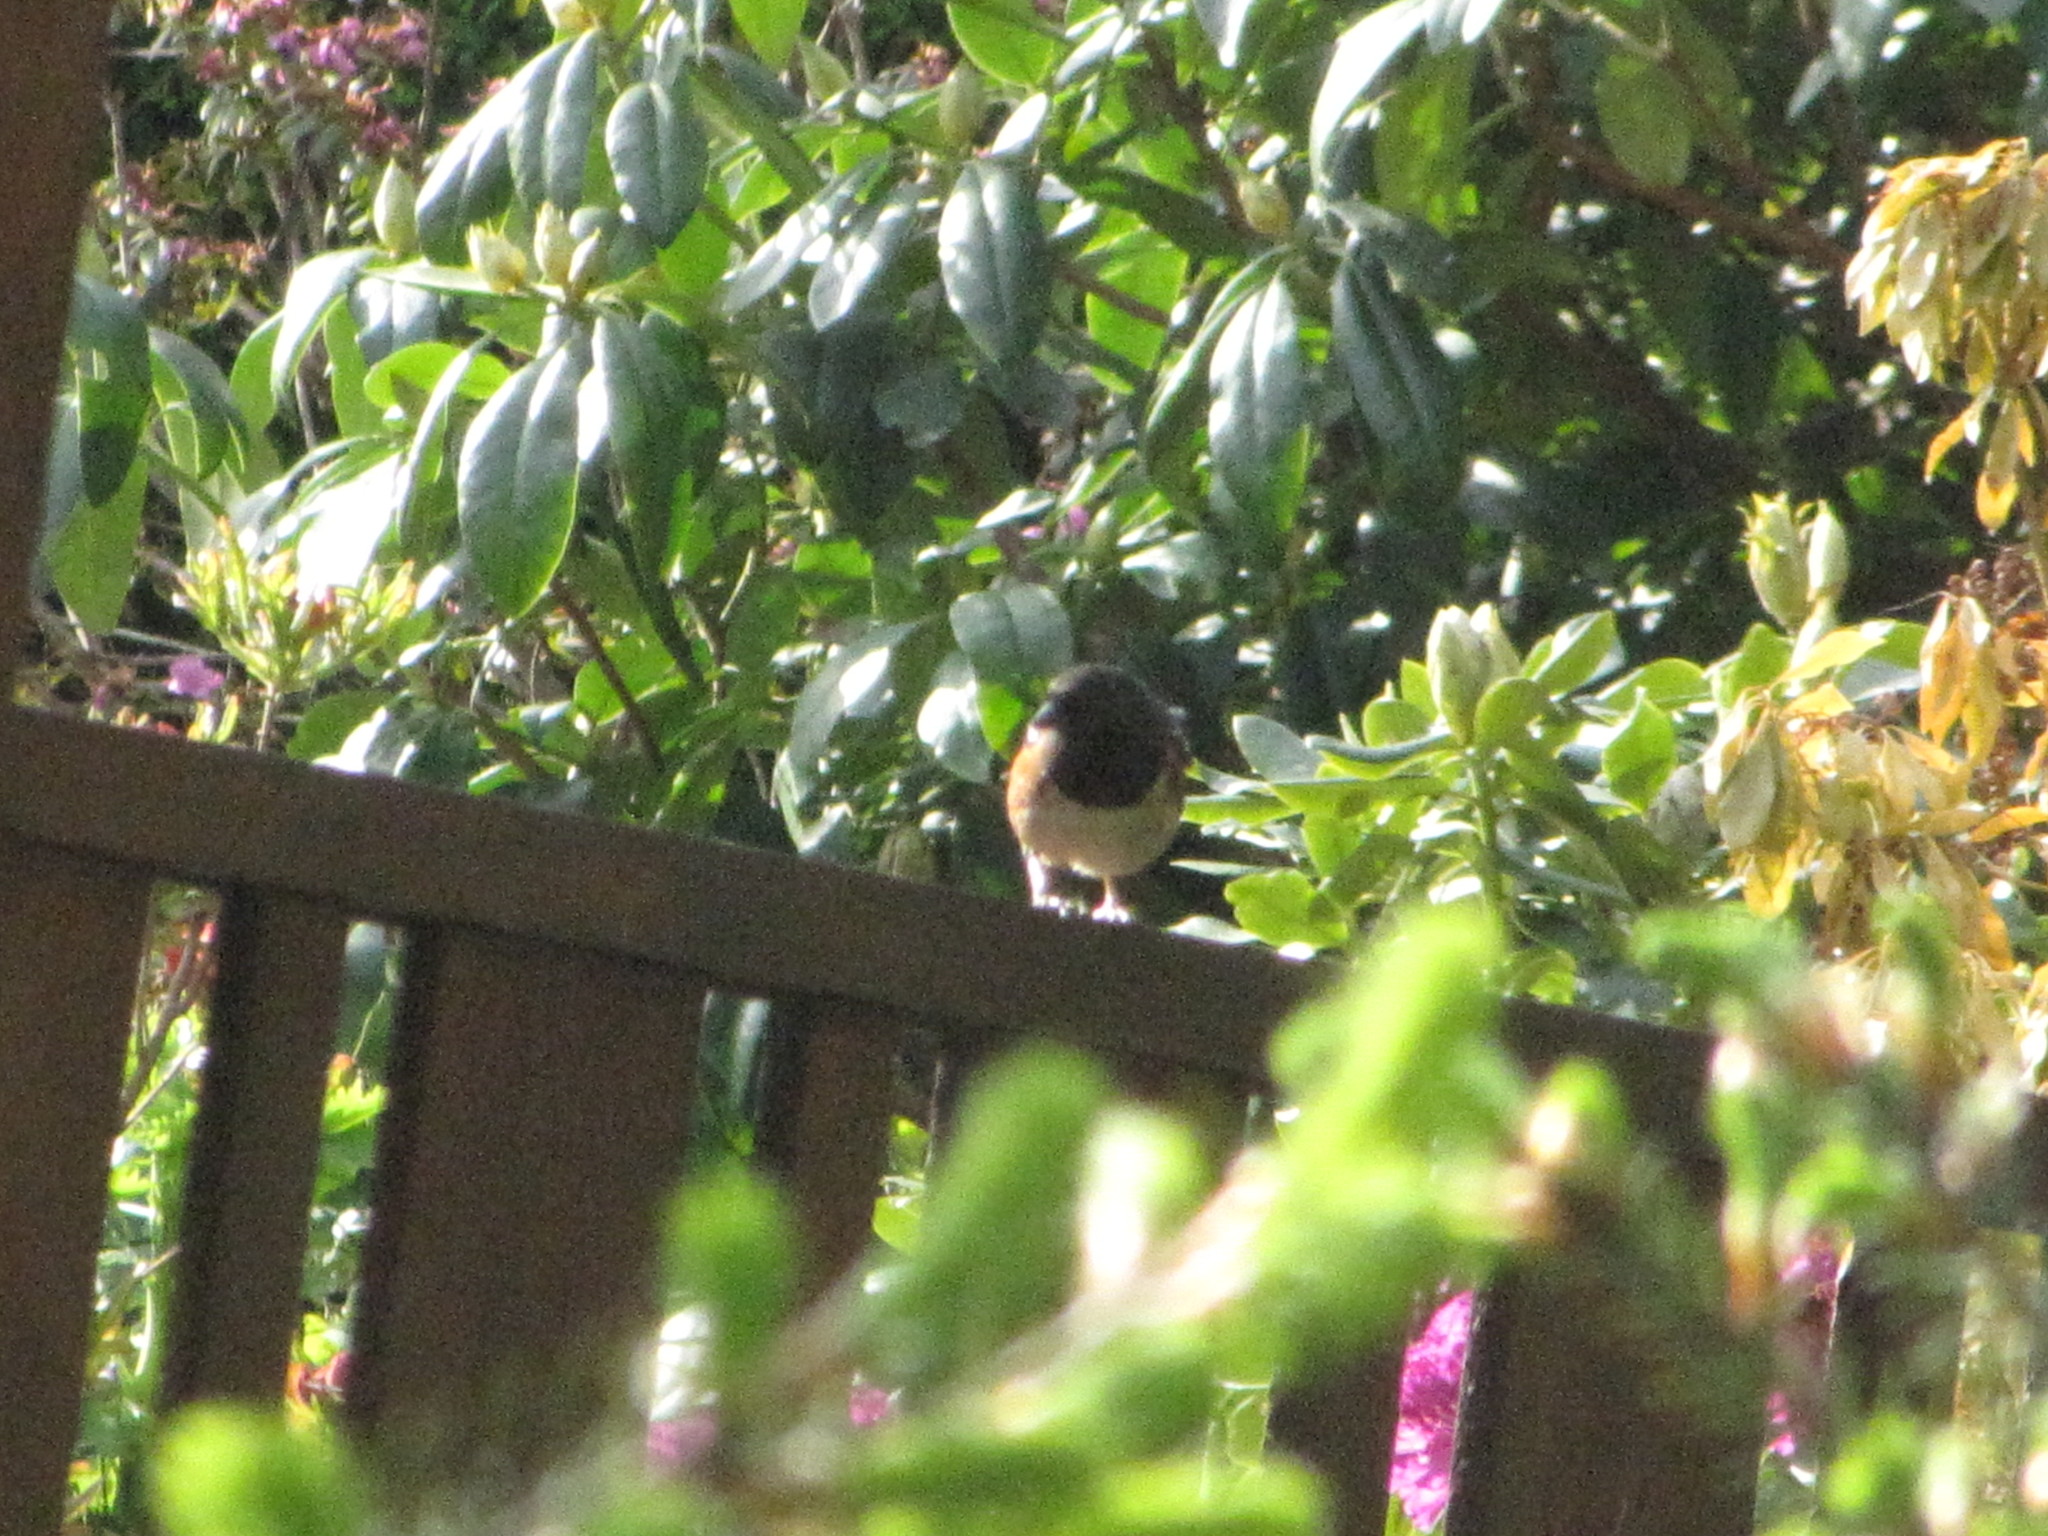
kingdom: Animalia
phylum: Chordata
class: Aves
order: Passeriformes
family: Passerellidae
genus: Pipilo
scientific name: Pipilo maculatus
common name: Spotted towhee
